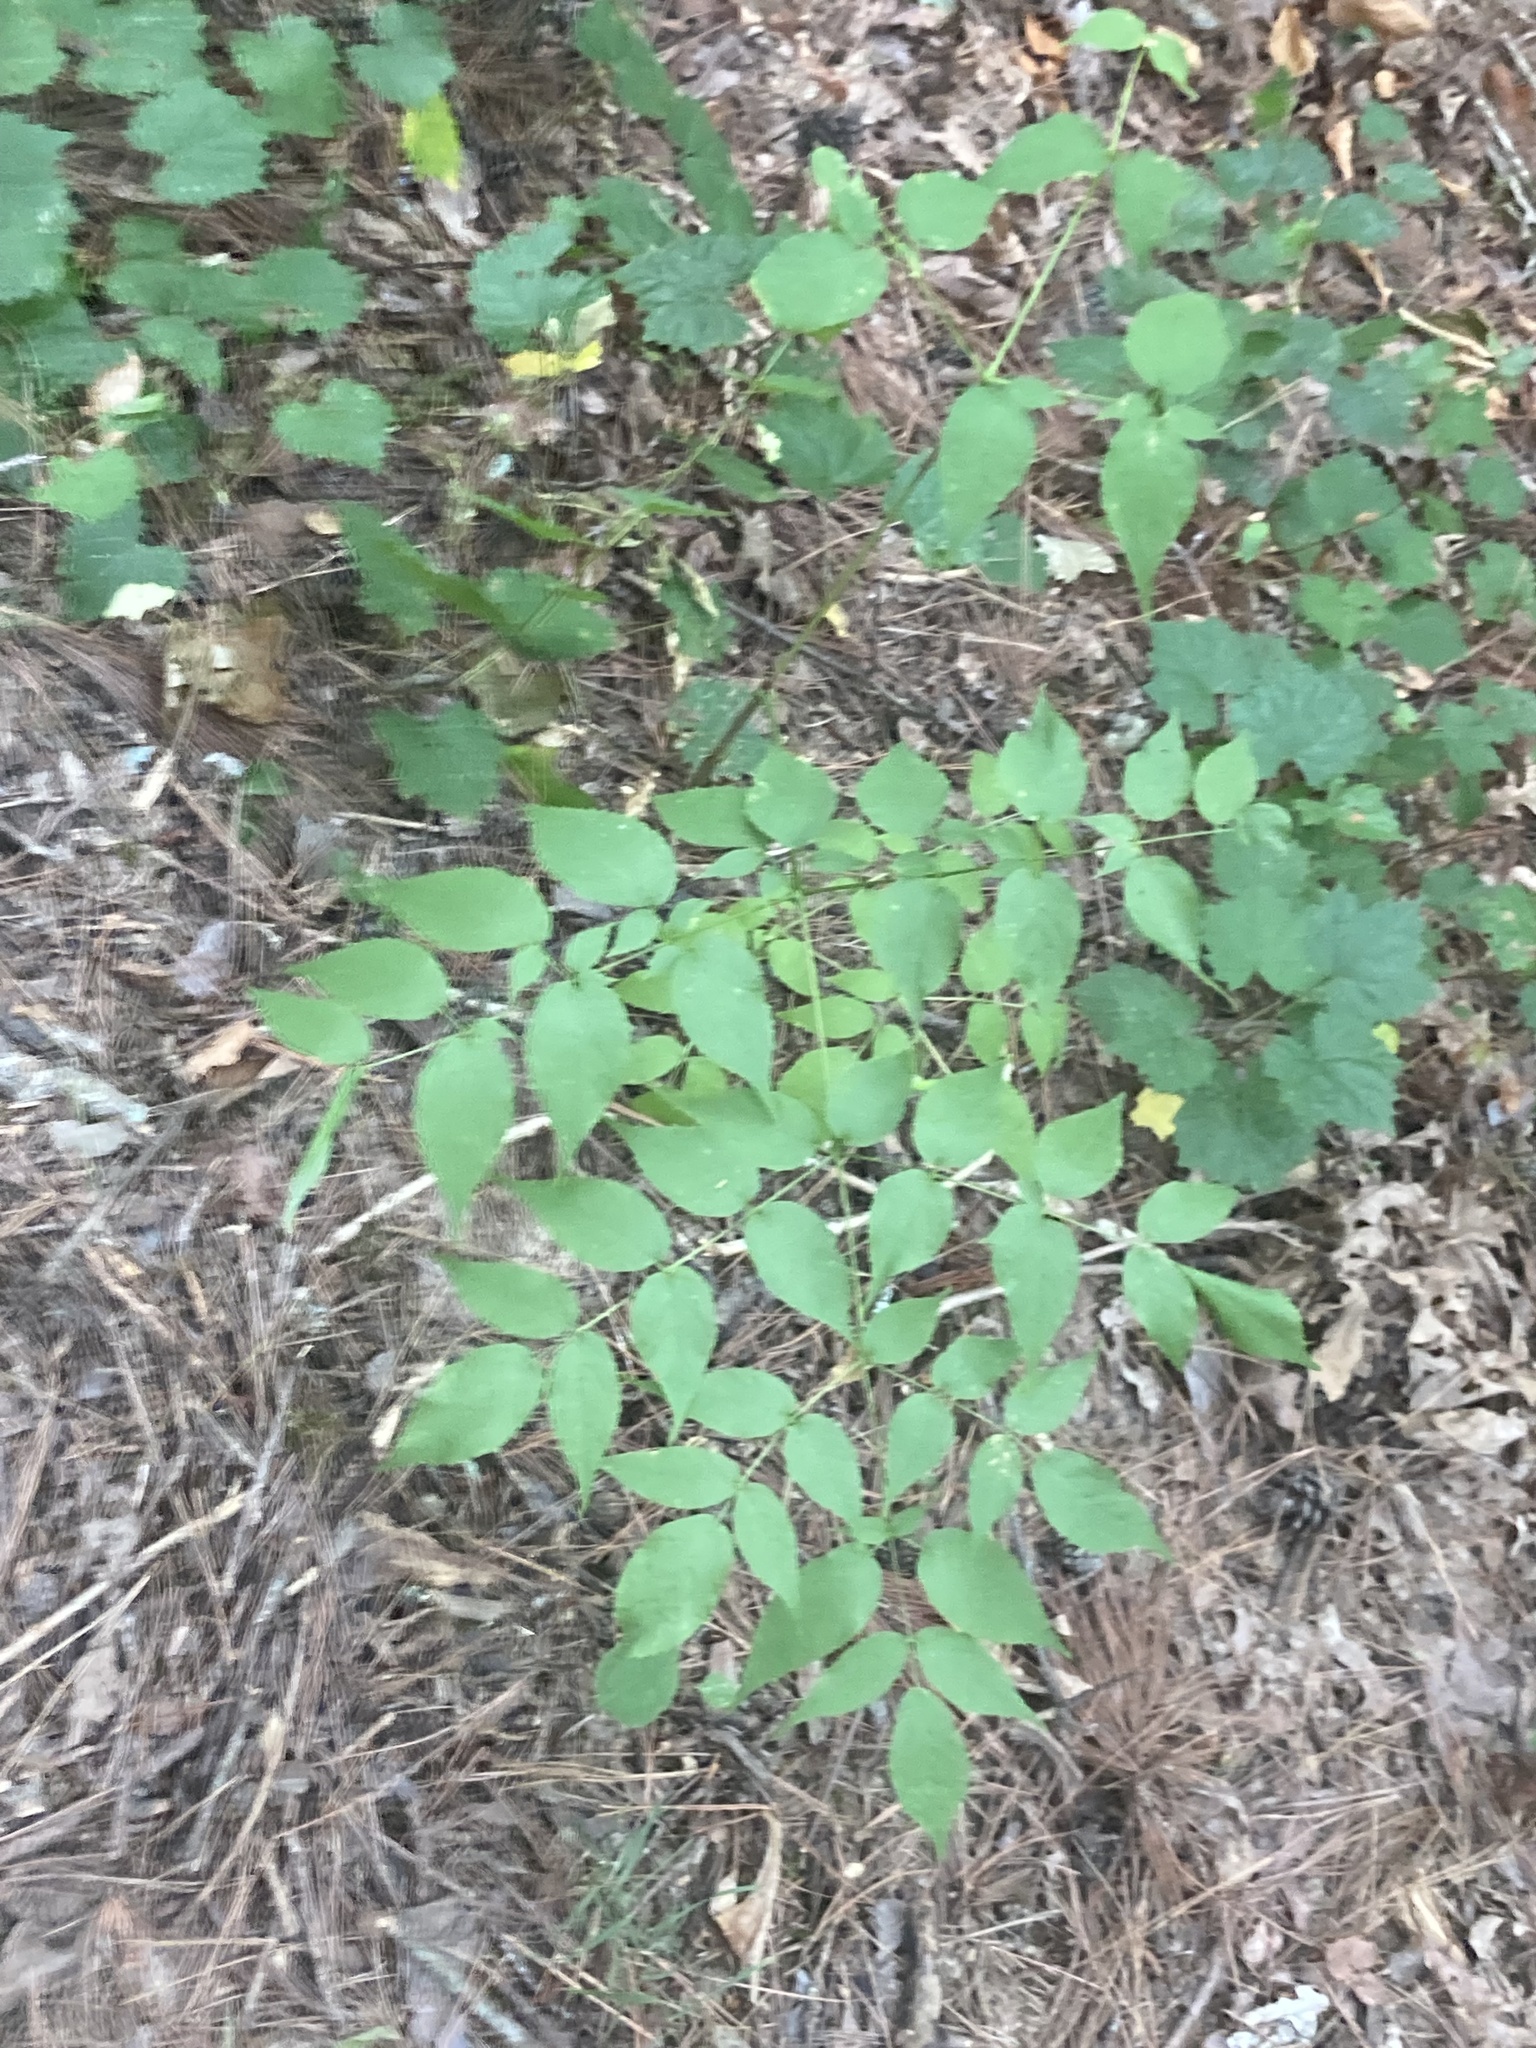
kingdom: Plantae
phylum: Tracheophyta
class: Magnoliopsida
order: Apiales
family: Araliaceae
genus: Aralia
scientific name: Aralia spinosa
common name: Hercules'-club
